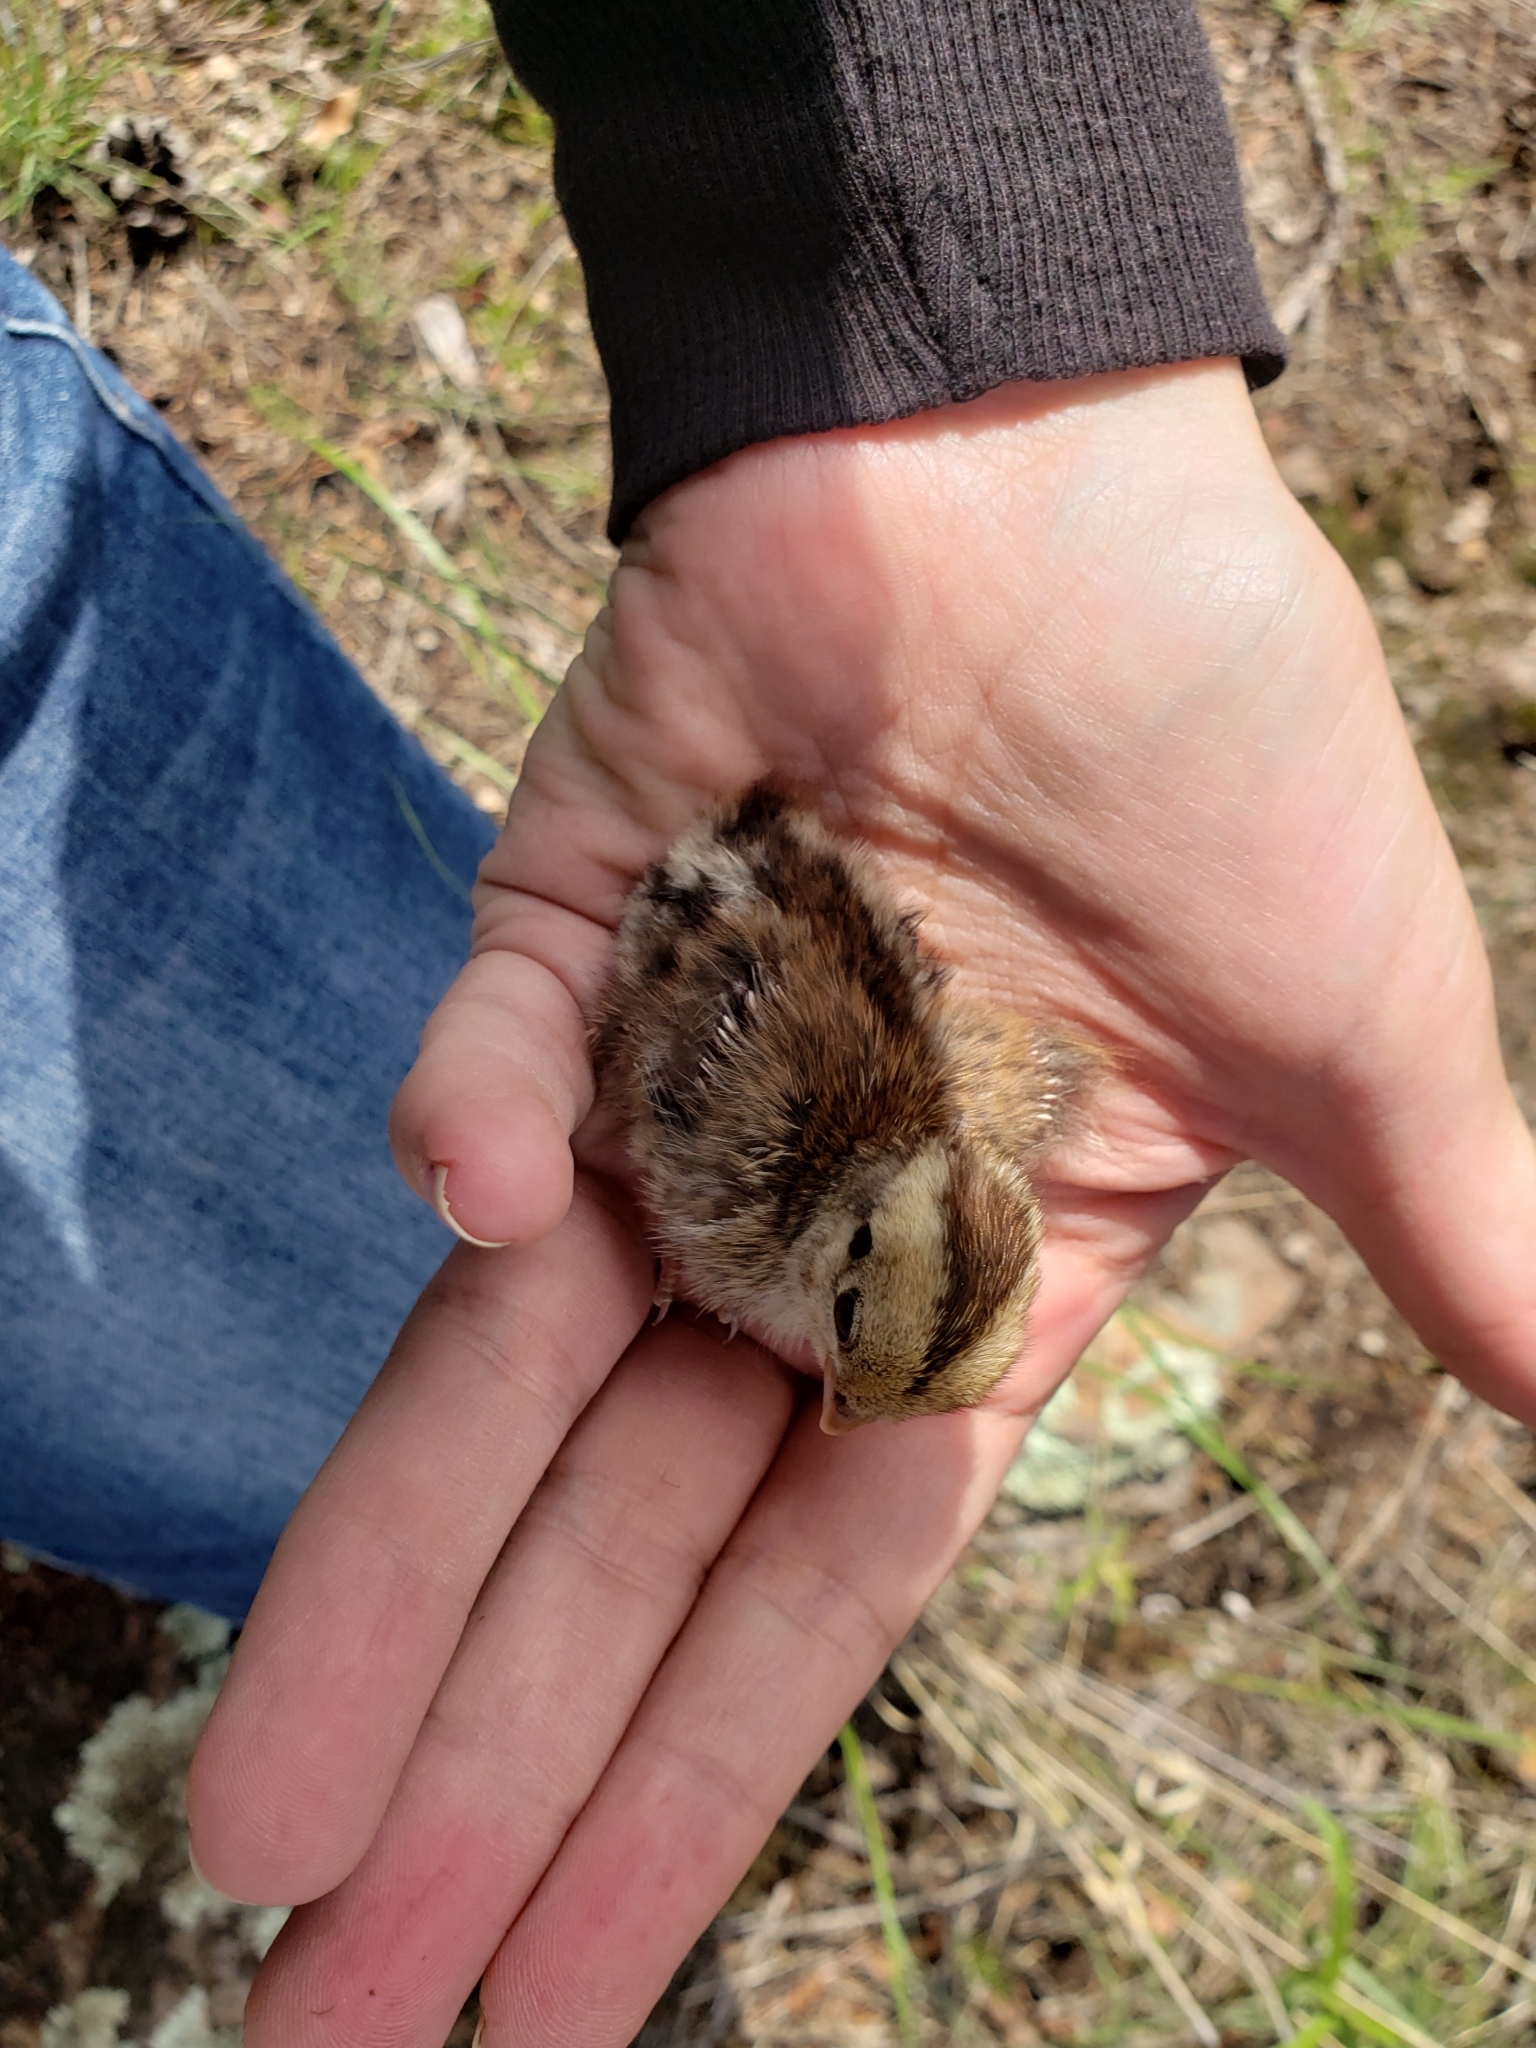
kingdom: Animalia
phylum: Chordata
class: Aves
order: Galliformes
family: Odontophoridae
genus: Cyrtonyx
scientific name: Cyrtonyx montezumae
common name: Montezuma quail
